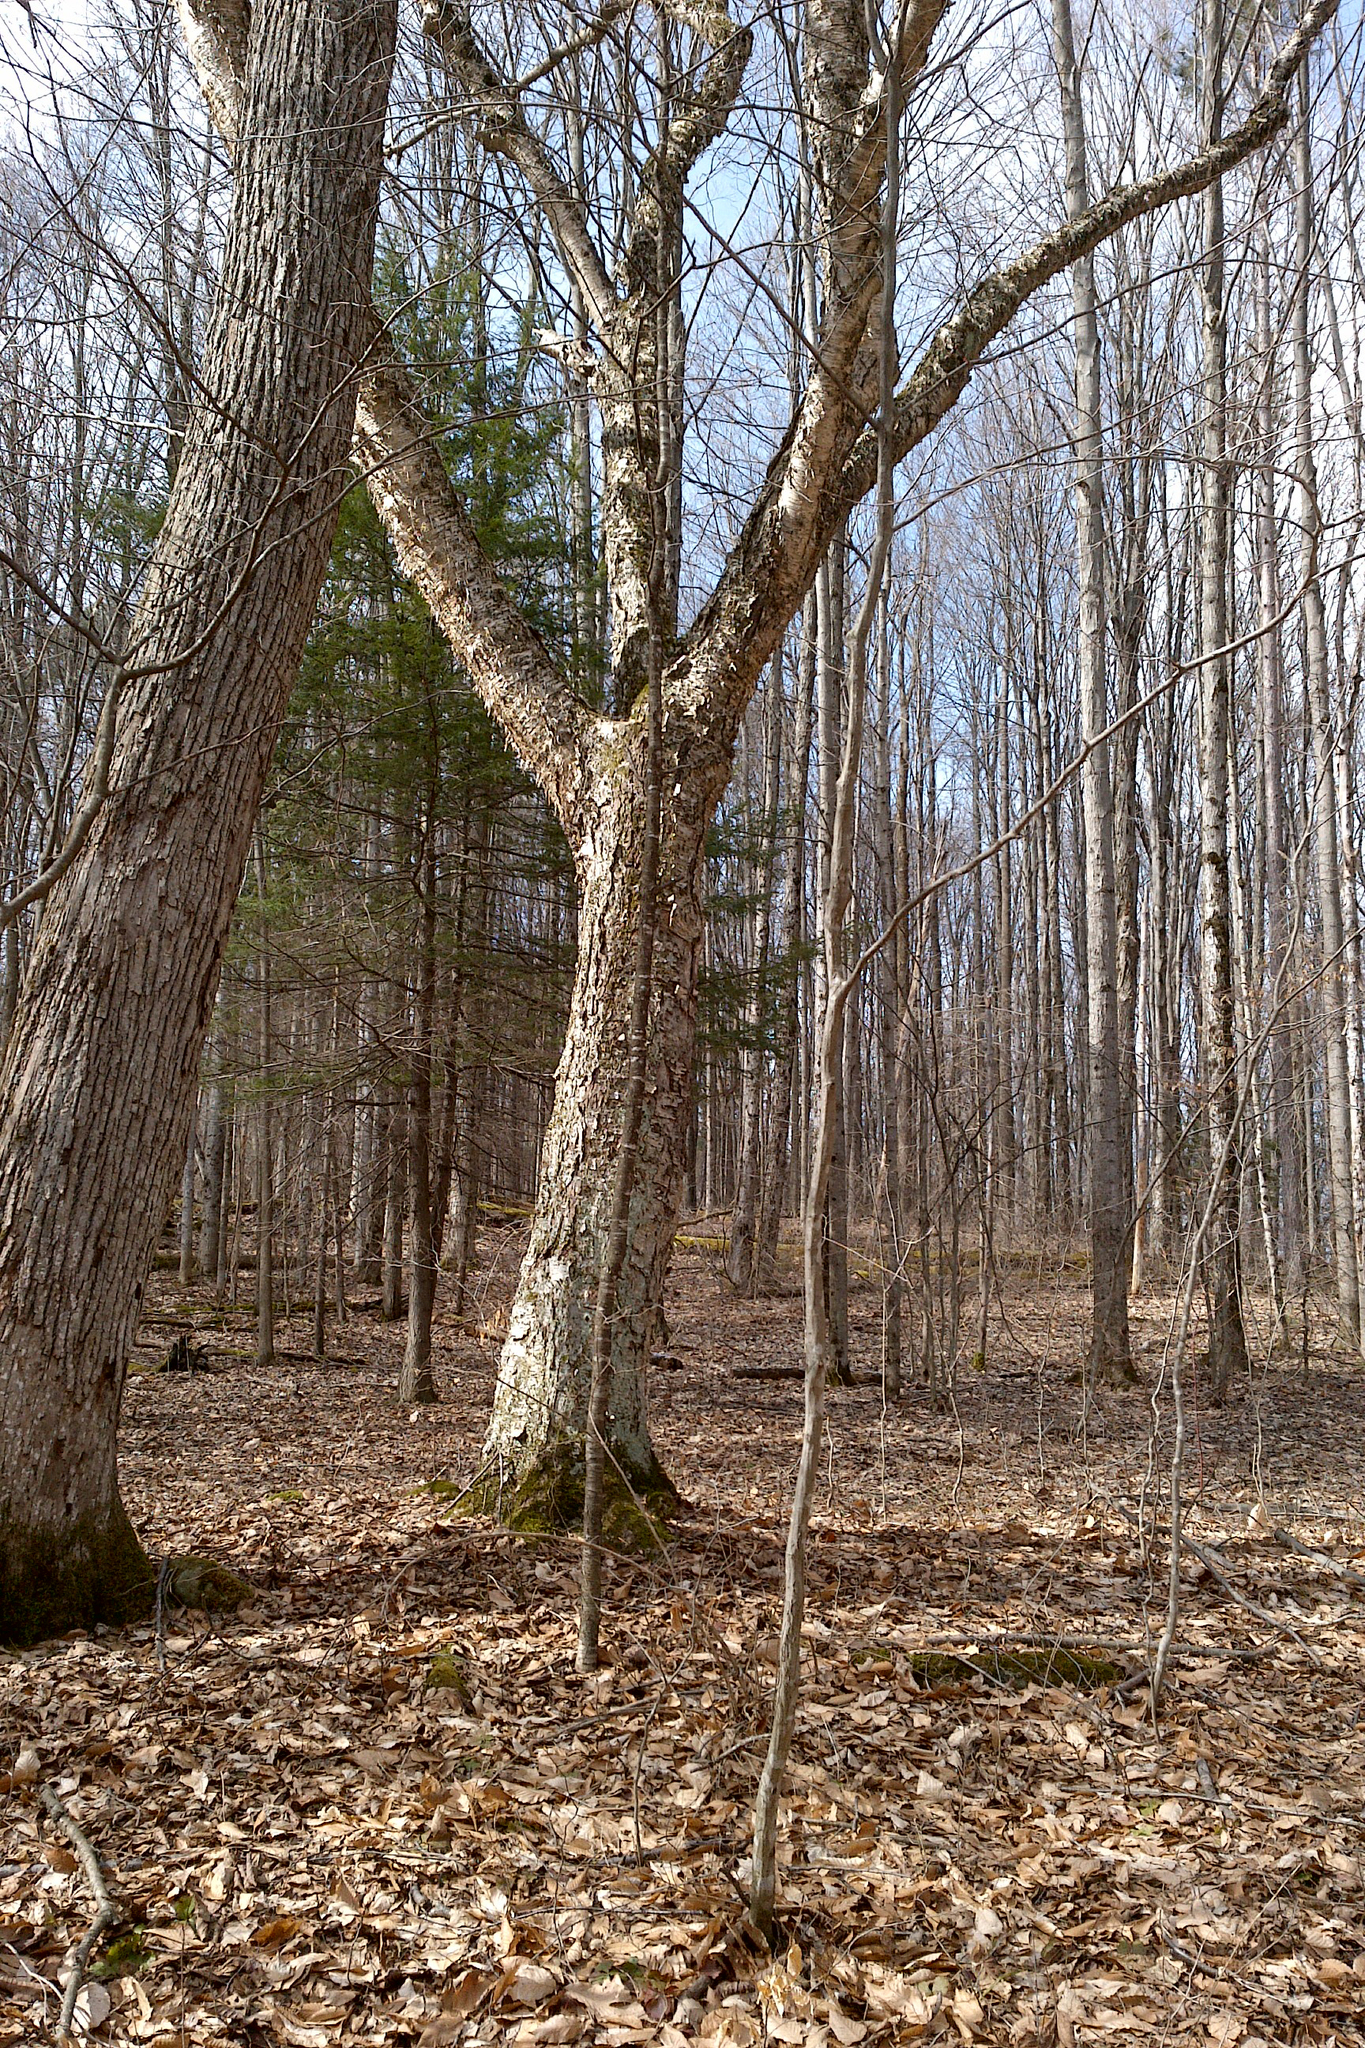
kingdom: Plantae
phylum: Tracheophyta
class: Magnoliopsida
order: Fagales
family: Betulaceae
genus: Betula
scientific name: Betula alleghaniensis
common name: Yellow birch
